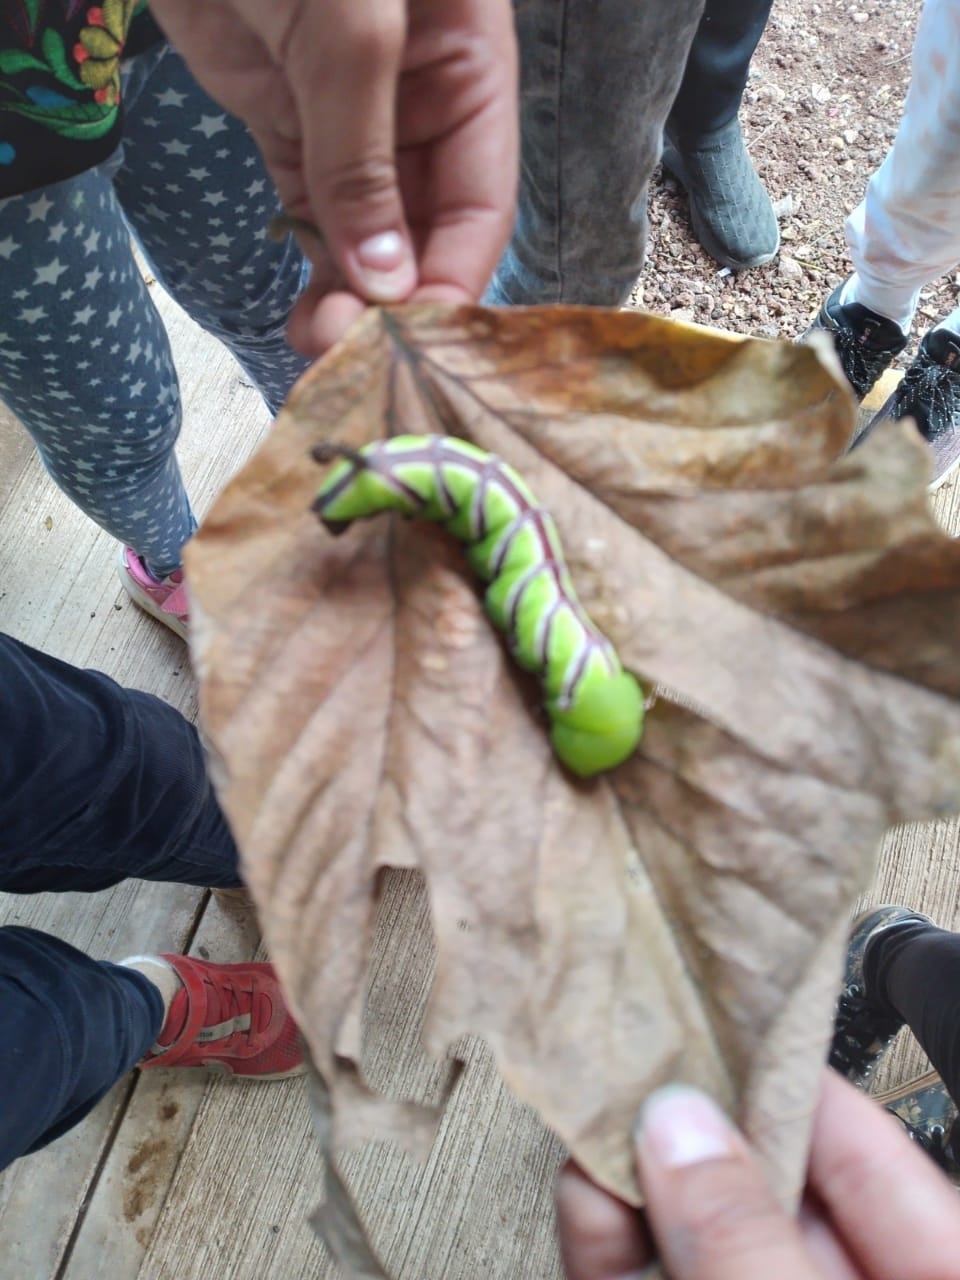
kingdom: Animalia
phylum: Arthropoda
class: Insecta
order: Lepidoptera
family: Sphingidae
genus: Sphinx
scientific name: Sphinx leucophaeata
